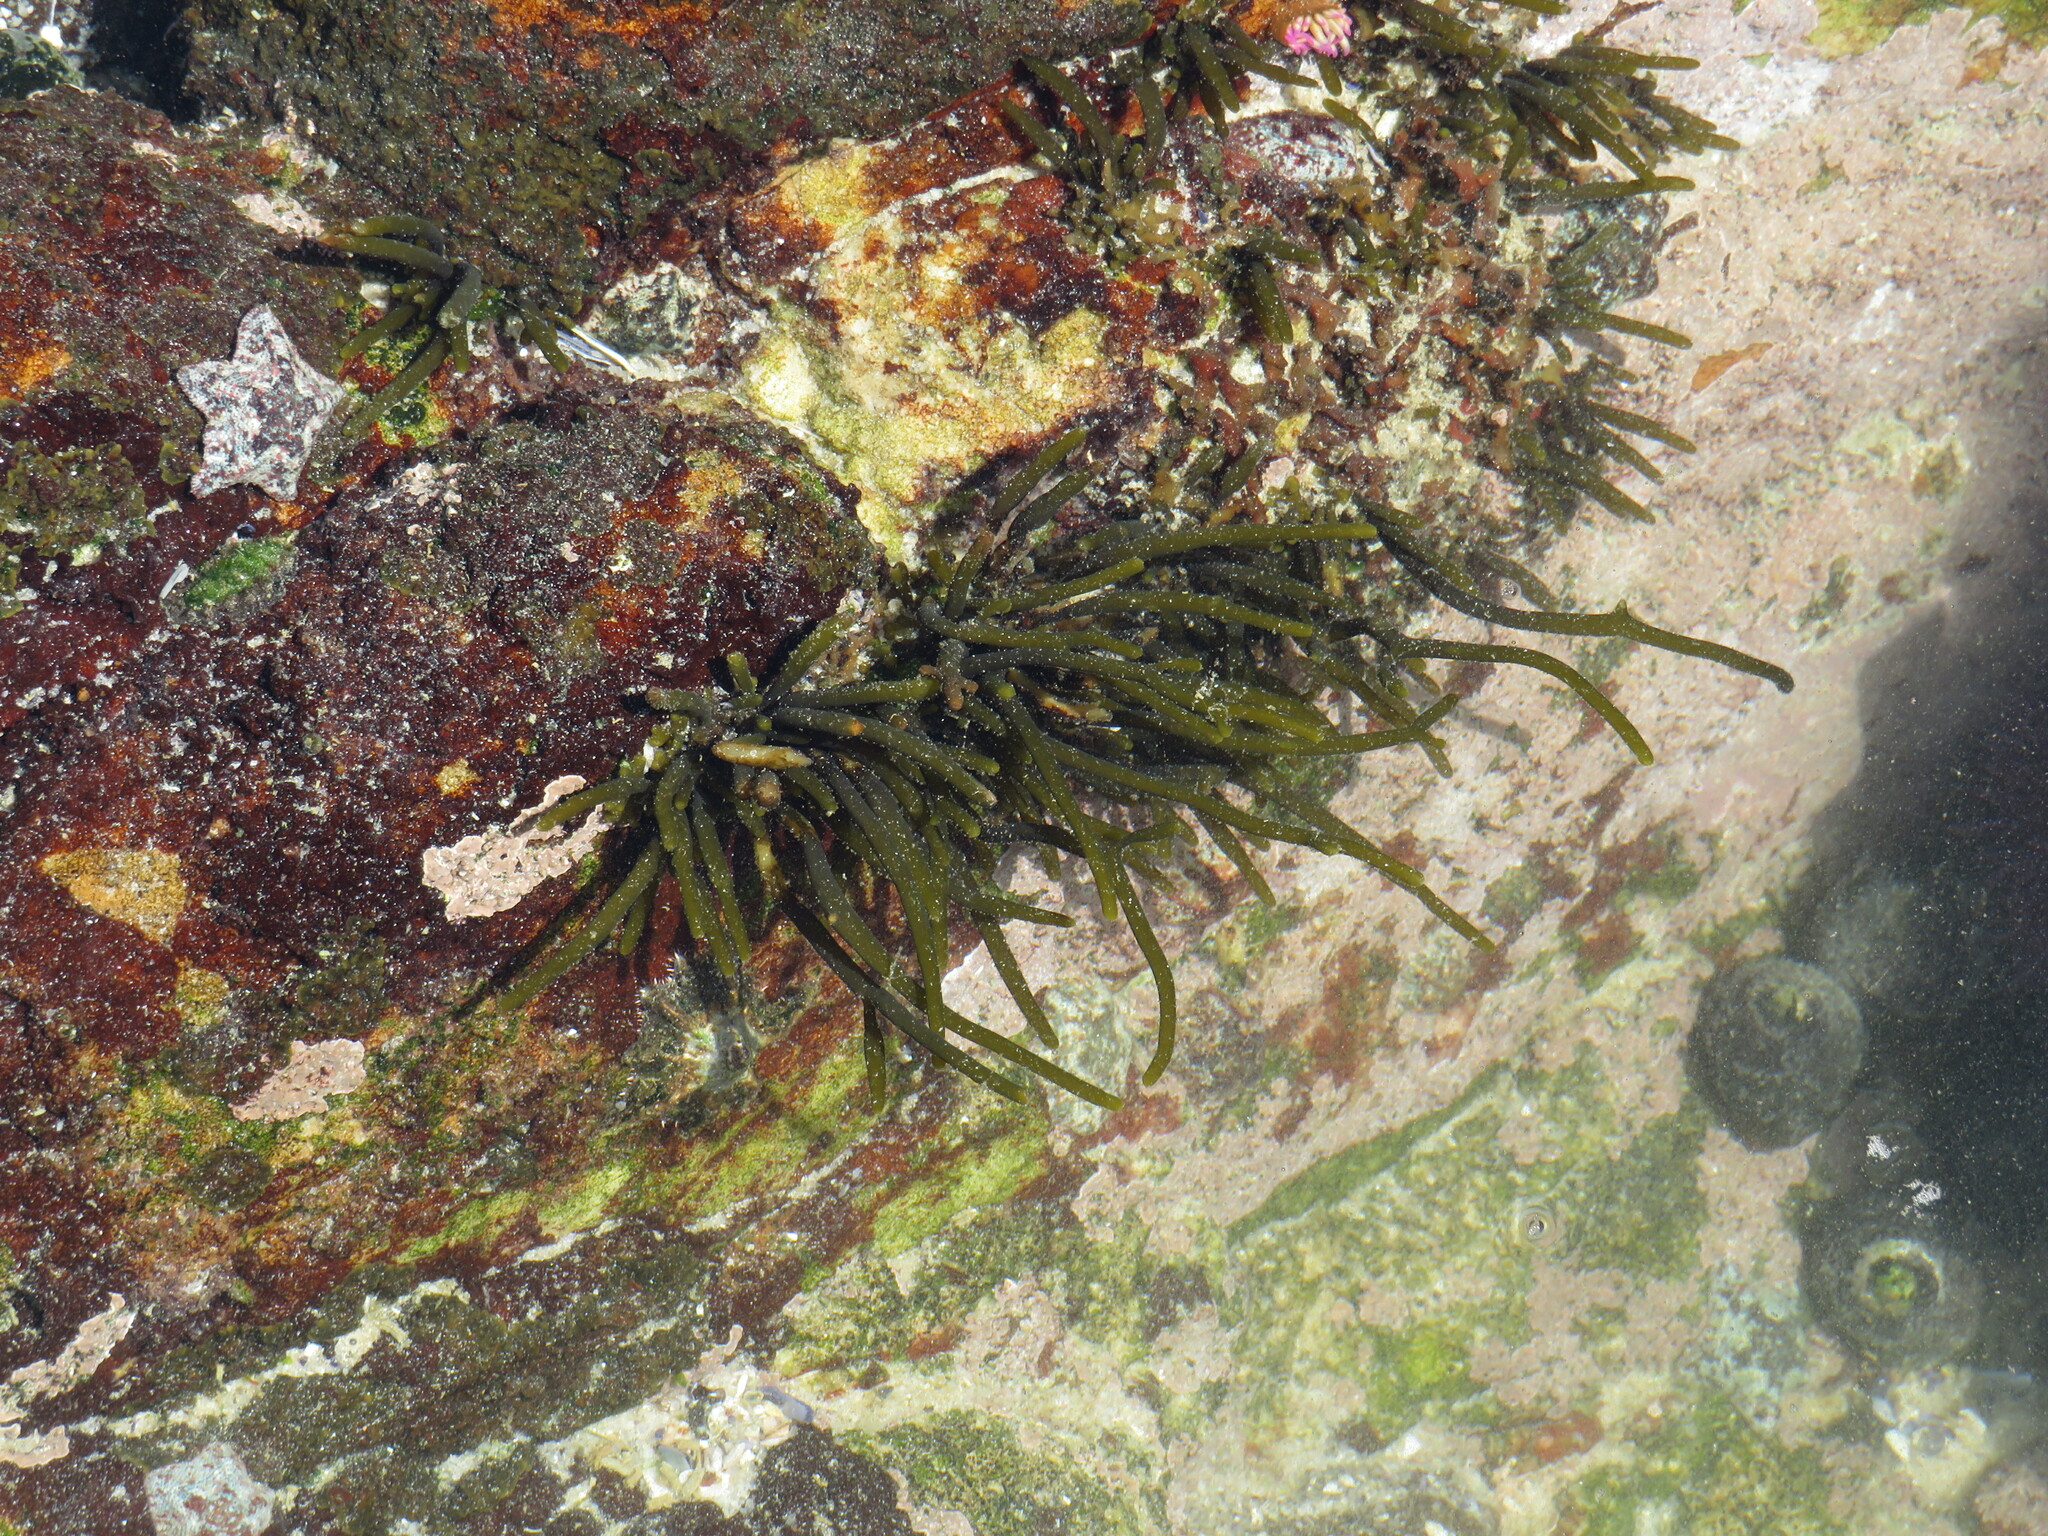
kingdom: Chromista
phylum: Ochrophyta
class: Phaeophyceae
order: Fucales
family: Sargassaceae
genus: Brassicophycus
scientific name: Brassicophycus
